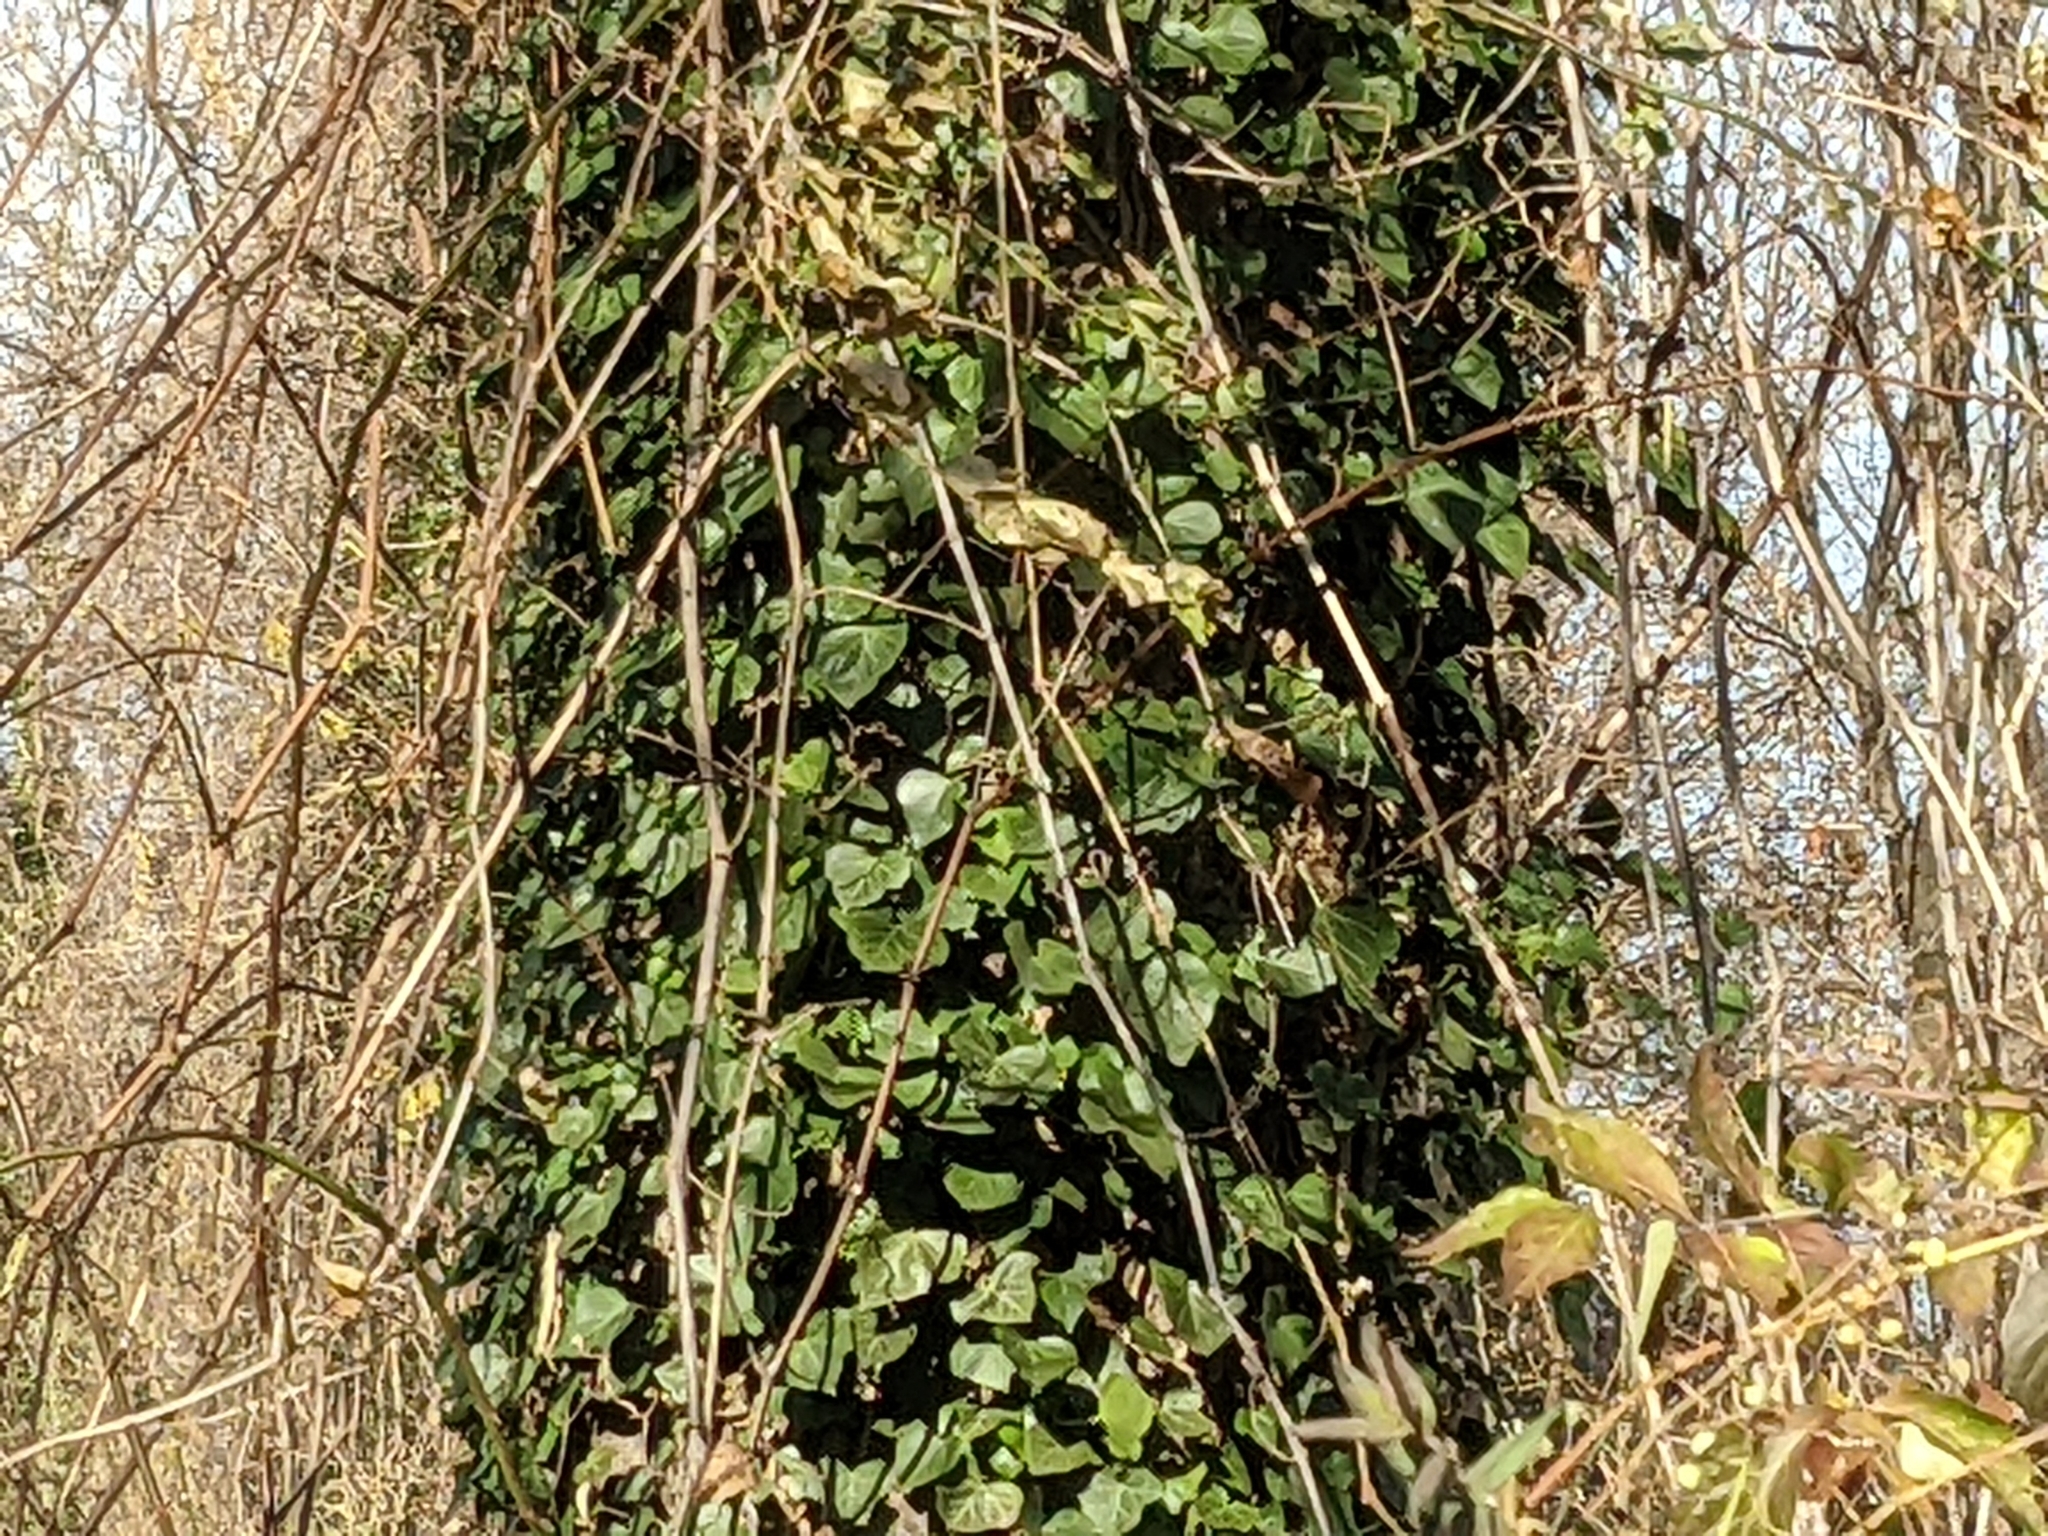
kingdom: Plantae
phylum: Tracheophyta
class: Magnoliopsida
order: Apiales
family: Araliaceae
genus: Hedera
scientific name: Hedera helix
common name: Ivy
